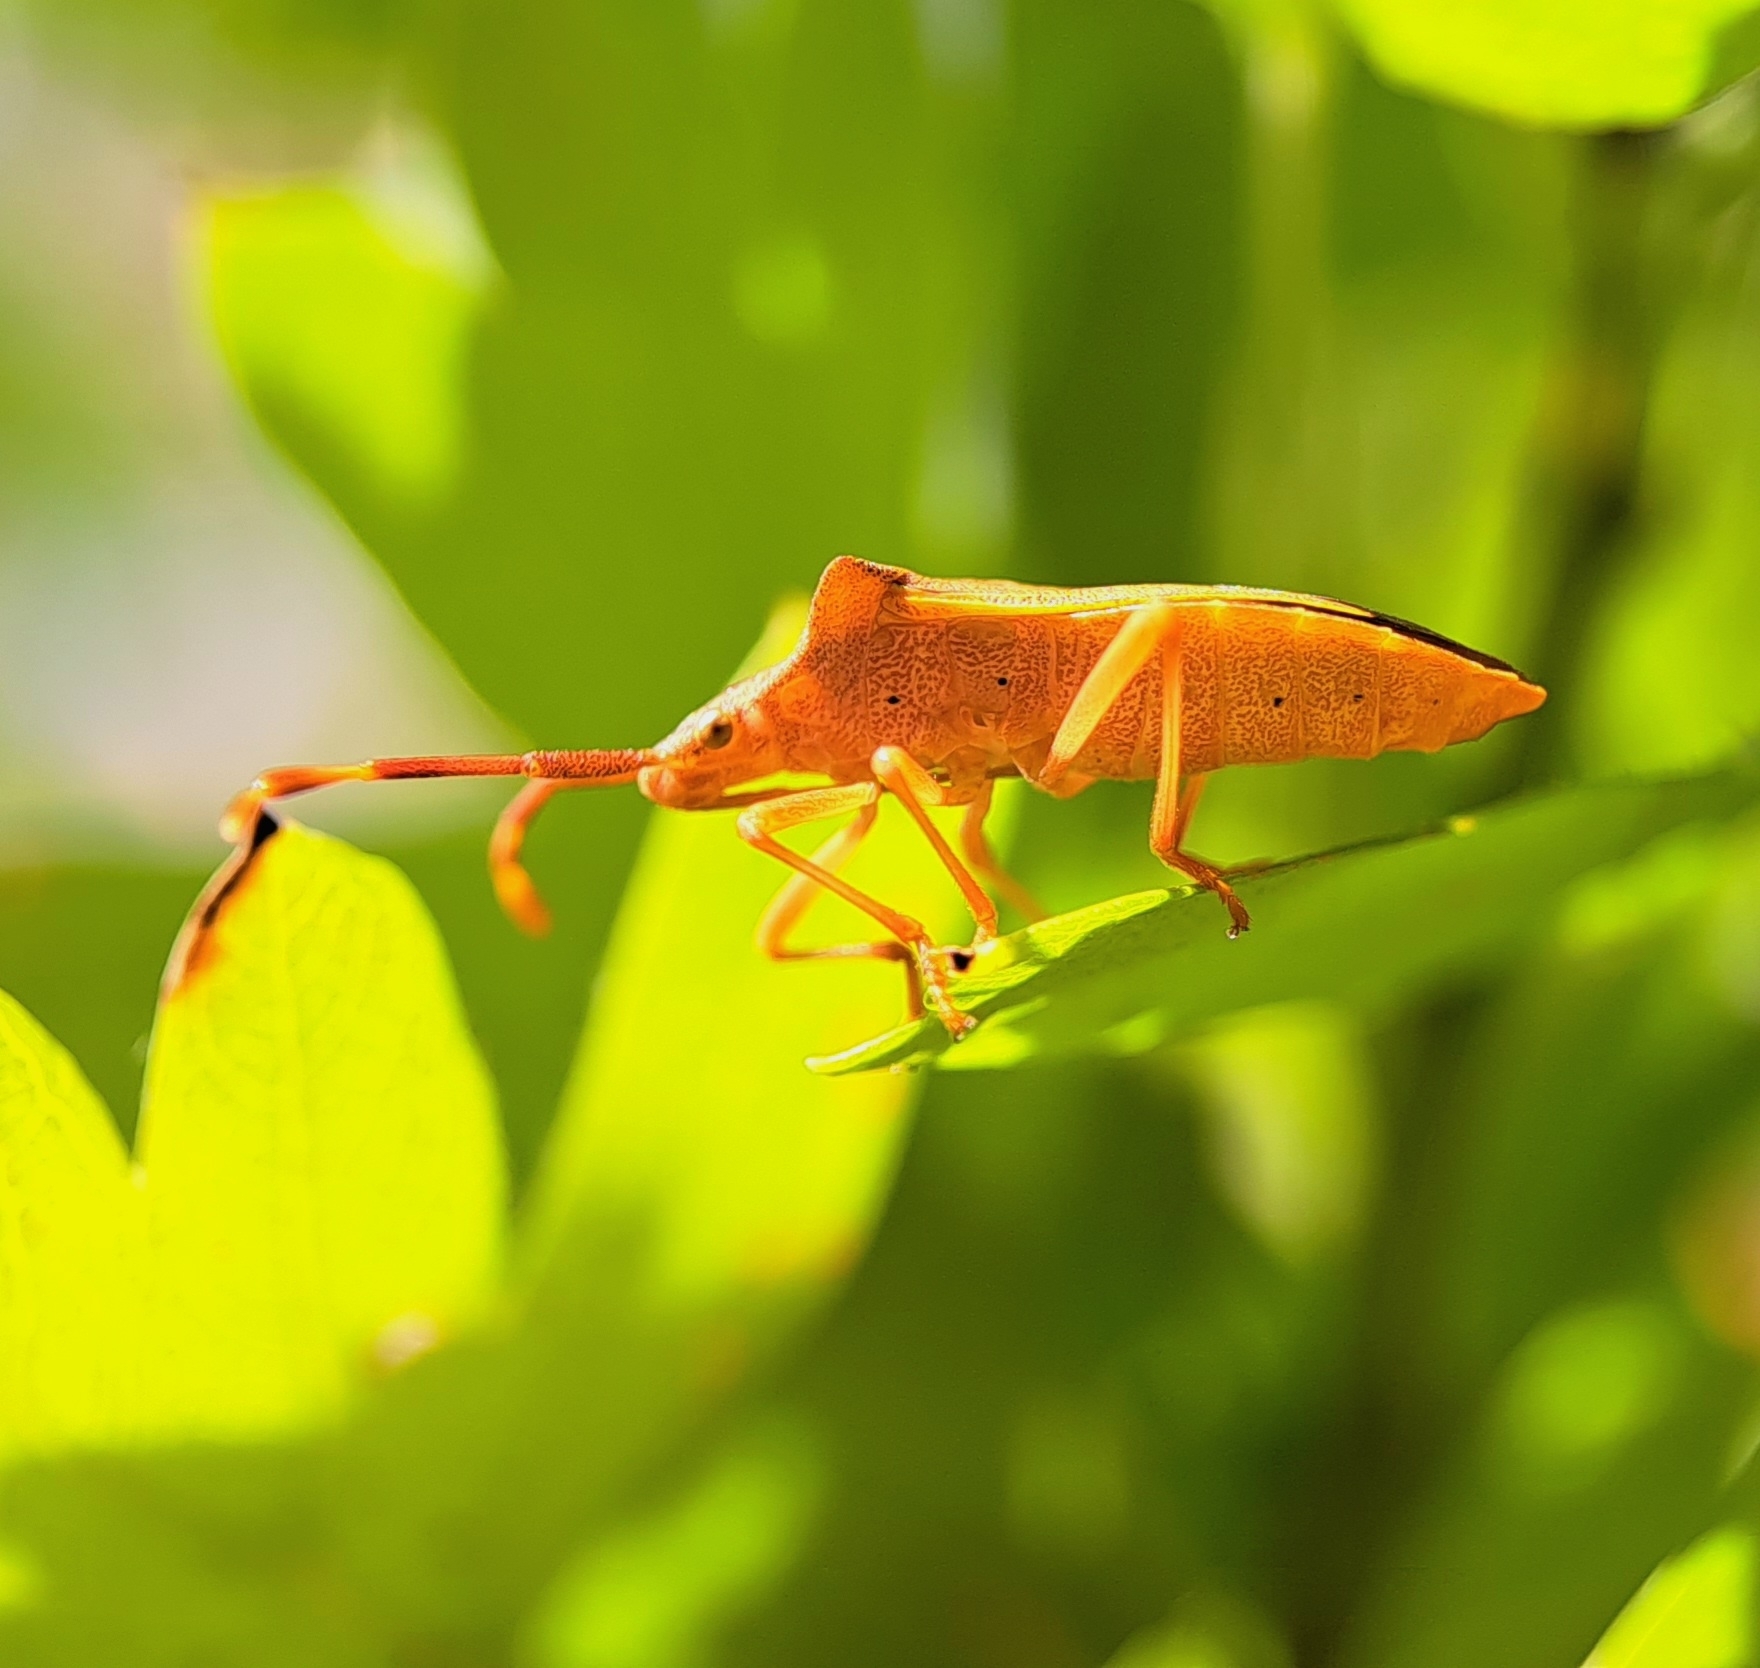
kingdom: Animalia
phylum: Arthropoda
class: Insecta
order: Hemiptera
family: Coreidae
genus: Gonocerus
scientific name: Gonocerus acuteangulatus
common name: Box bug
